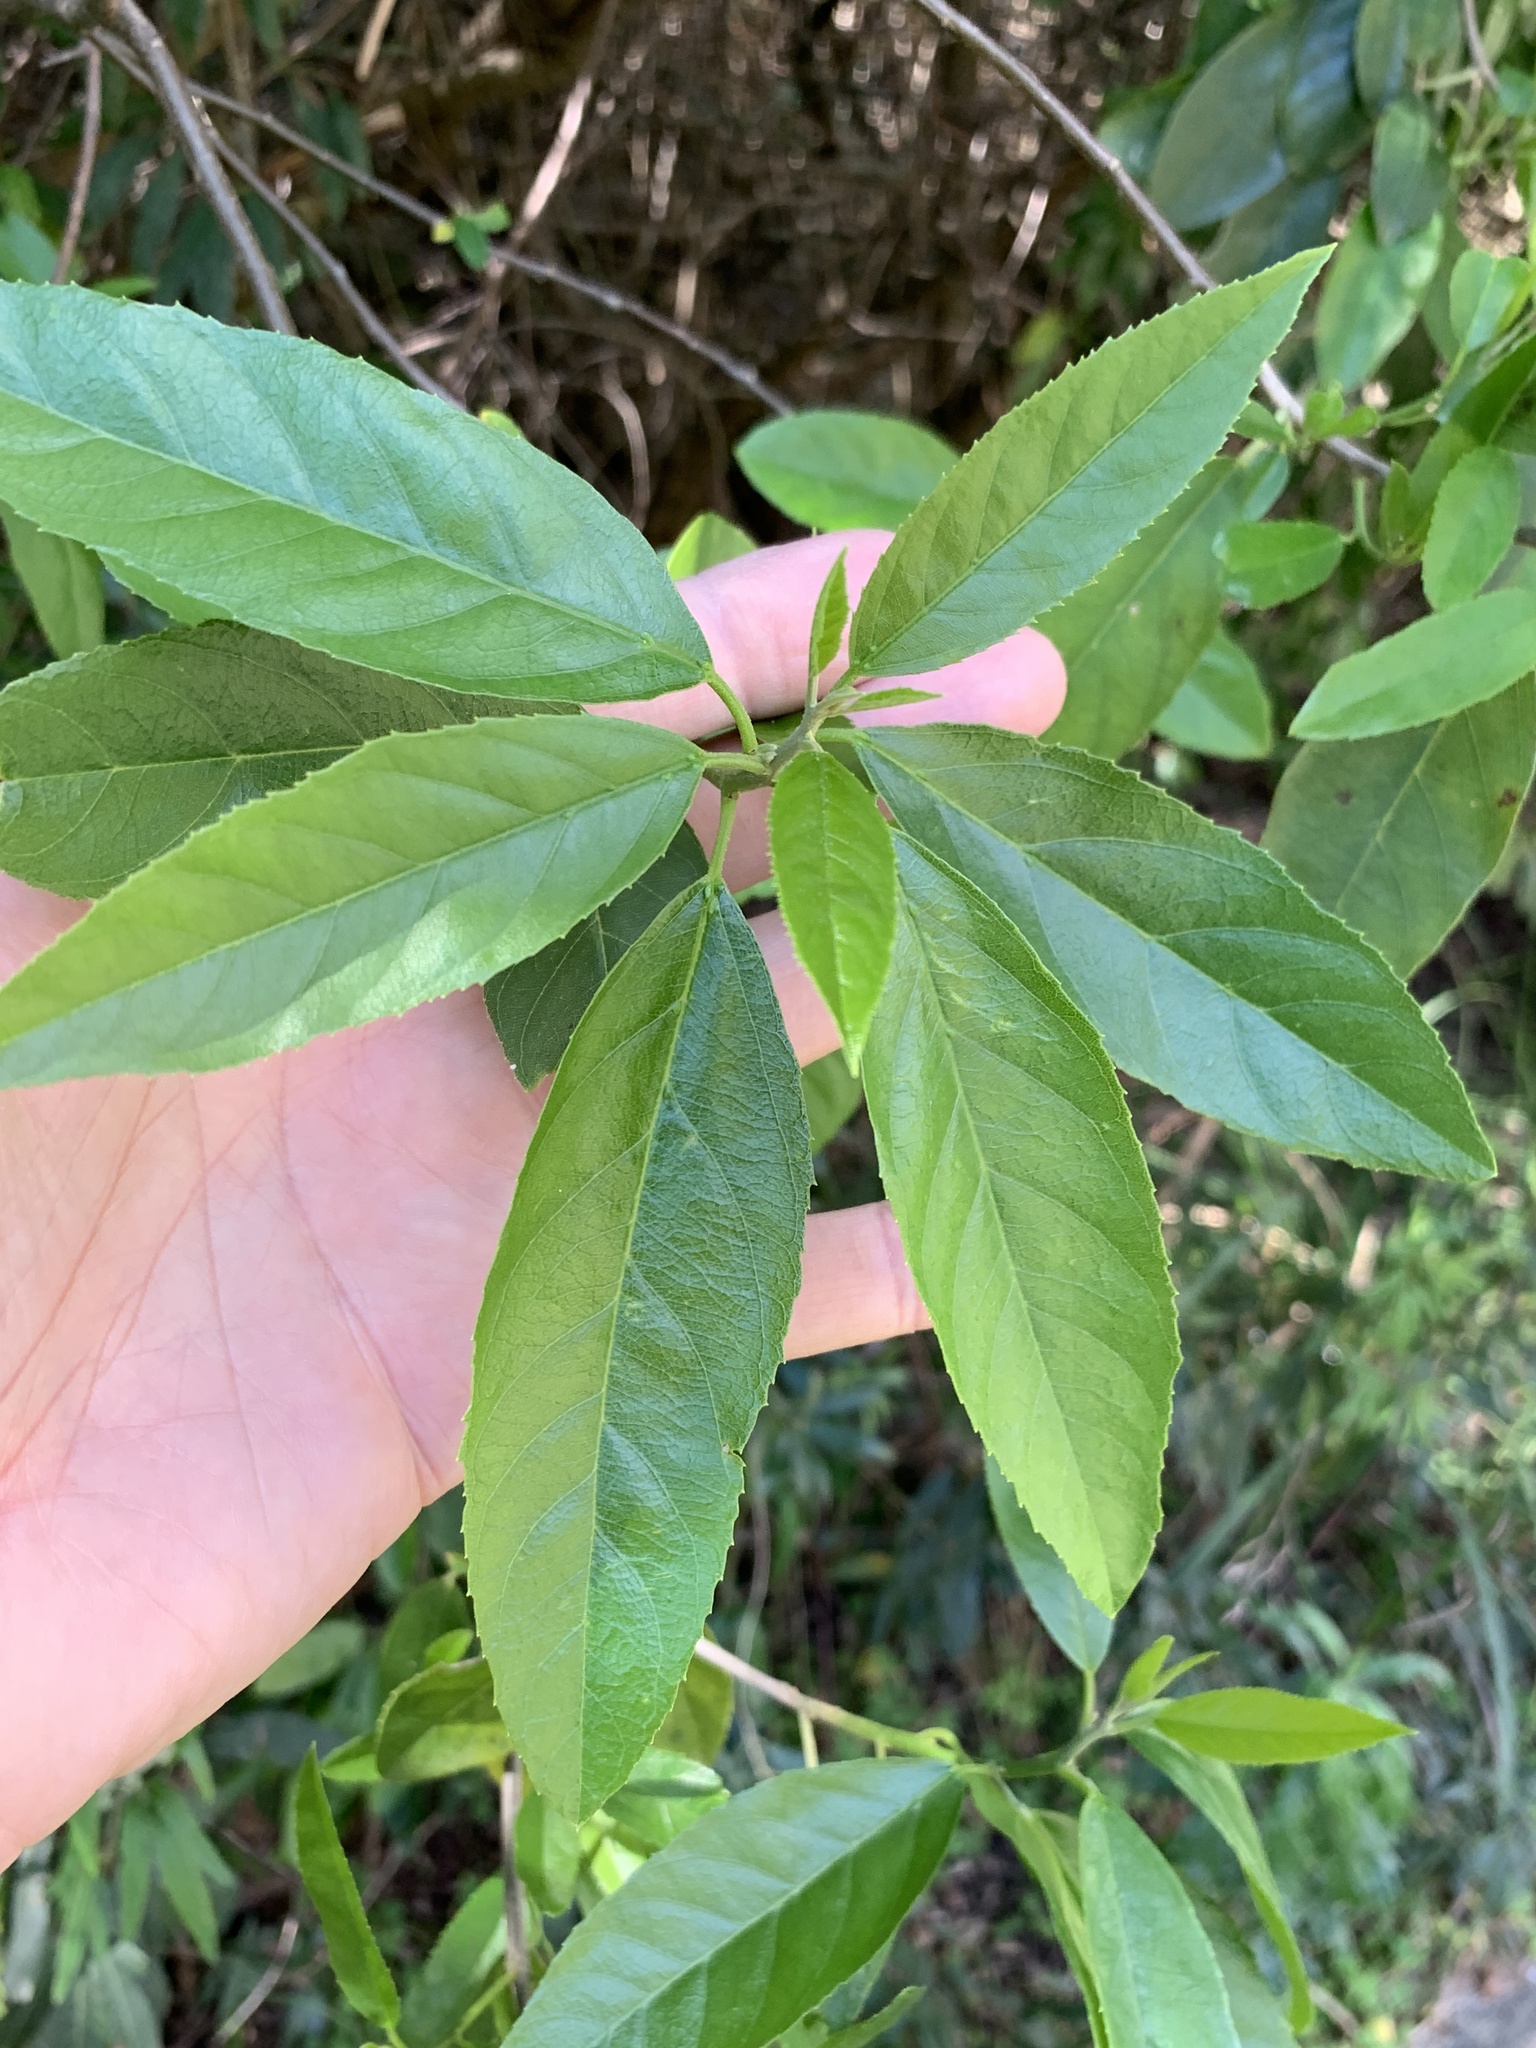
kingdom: Plantae
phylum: Tracheophyta
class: Magnoliopsida
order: Malpighiales
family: Achariaceae
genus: Kiggelaria
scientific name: Kiggelaria africana
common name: Wild peach
